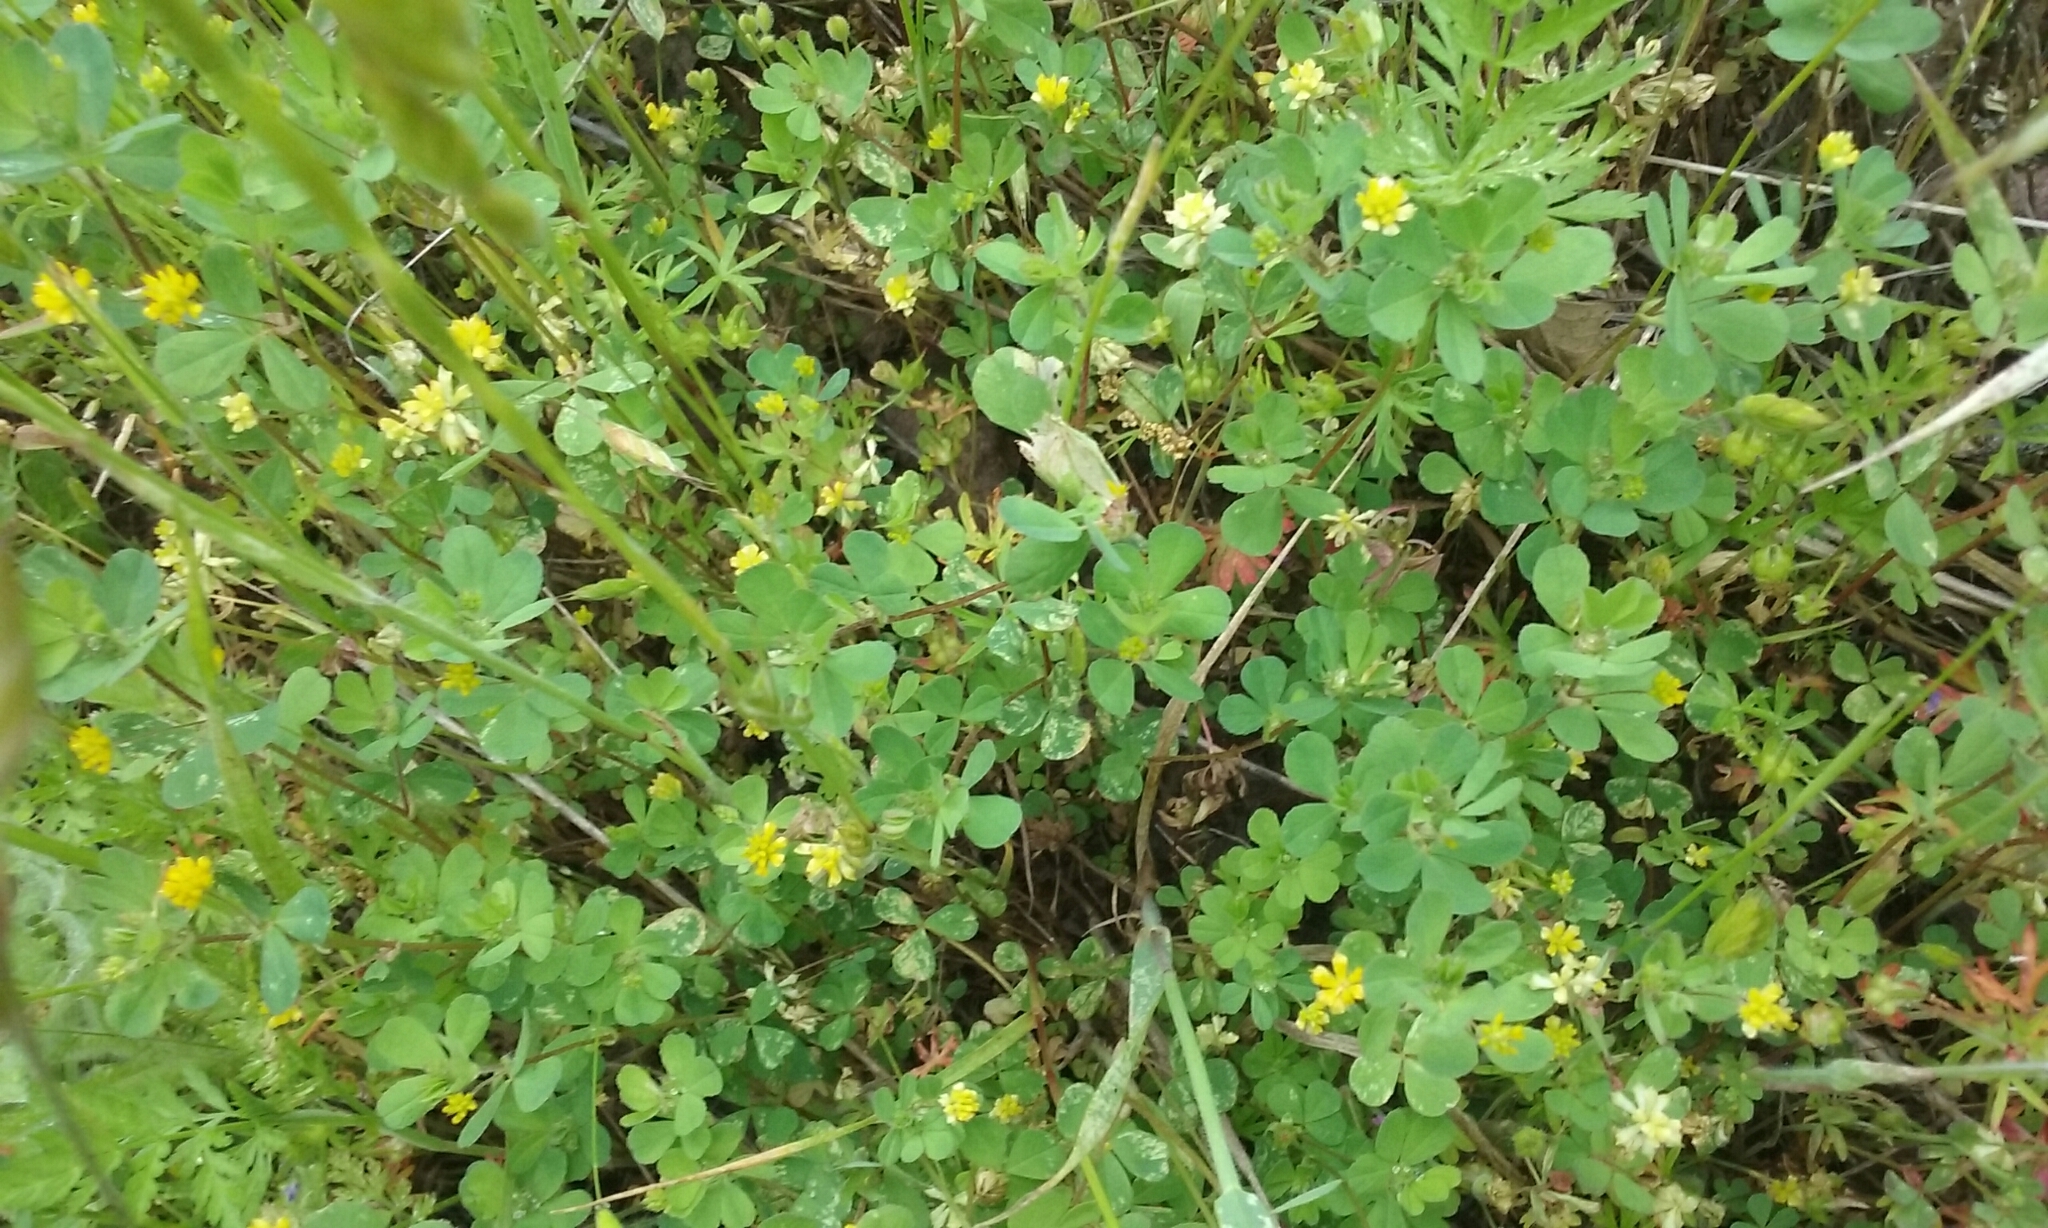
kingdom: Plantae
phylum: Tracheophyta
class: Magnoliopsida
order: Fabales
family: Fabaceae
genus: Trifolium
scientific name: Trifolium dubium
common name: Suckling clover
